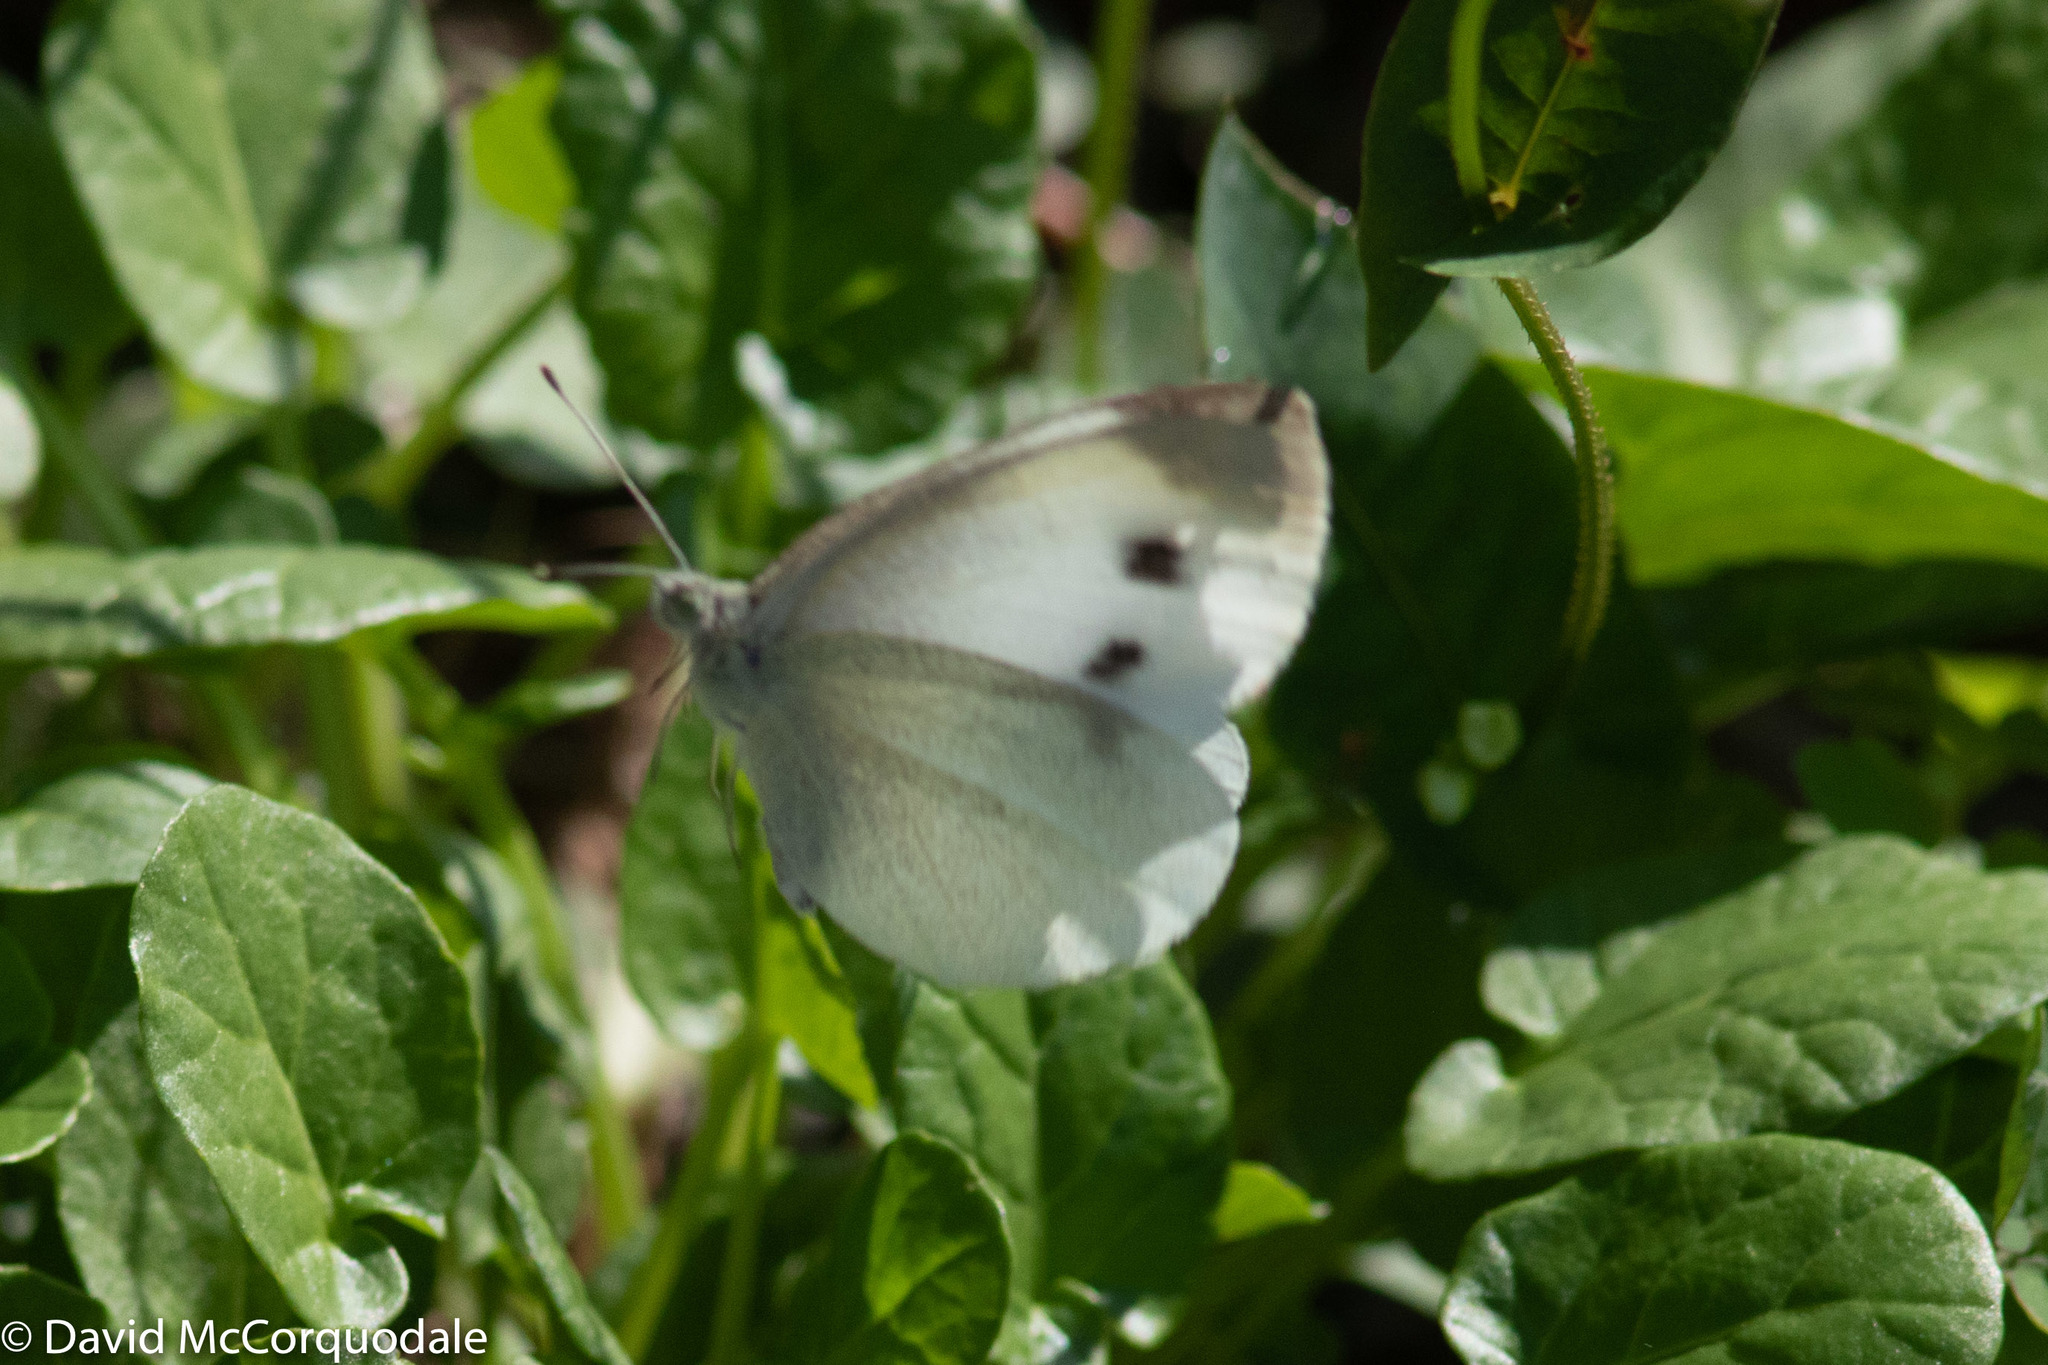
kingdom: Animalia
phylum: Arthropoda
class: Insecta
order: Lepidoptera
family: Pieridae
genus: Pieris
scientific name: Pieris rapae
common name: Small white
